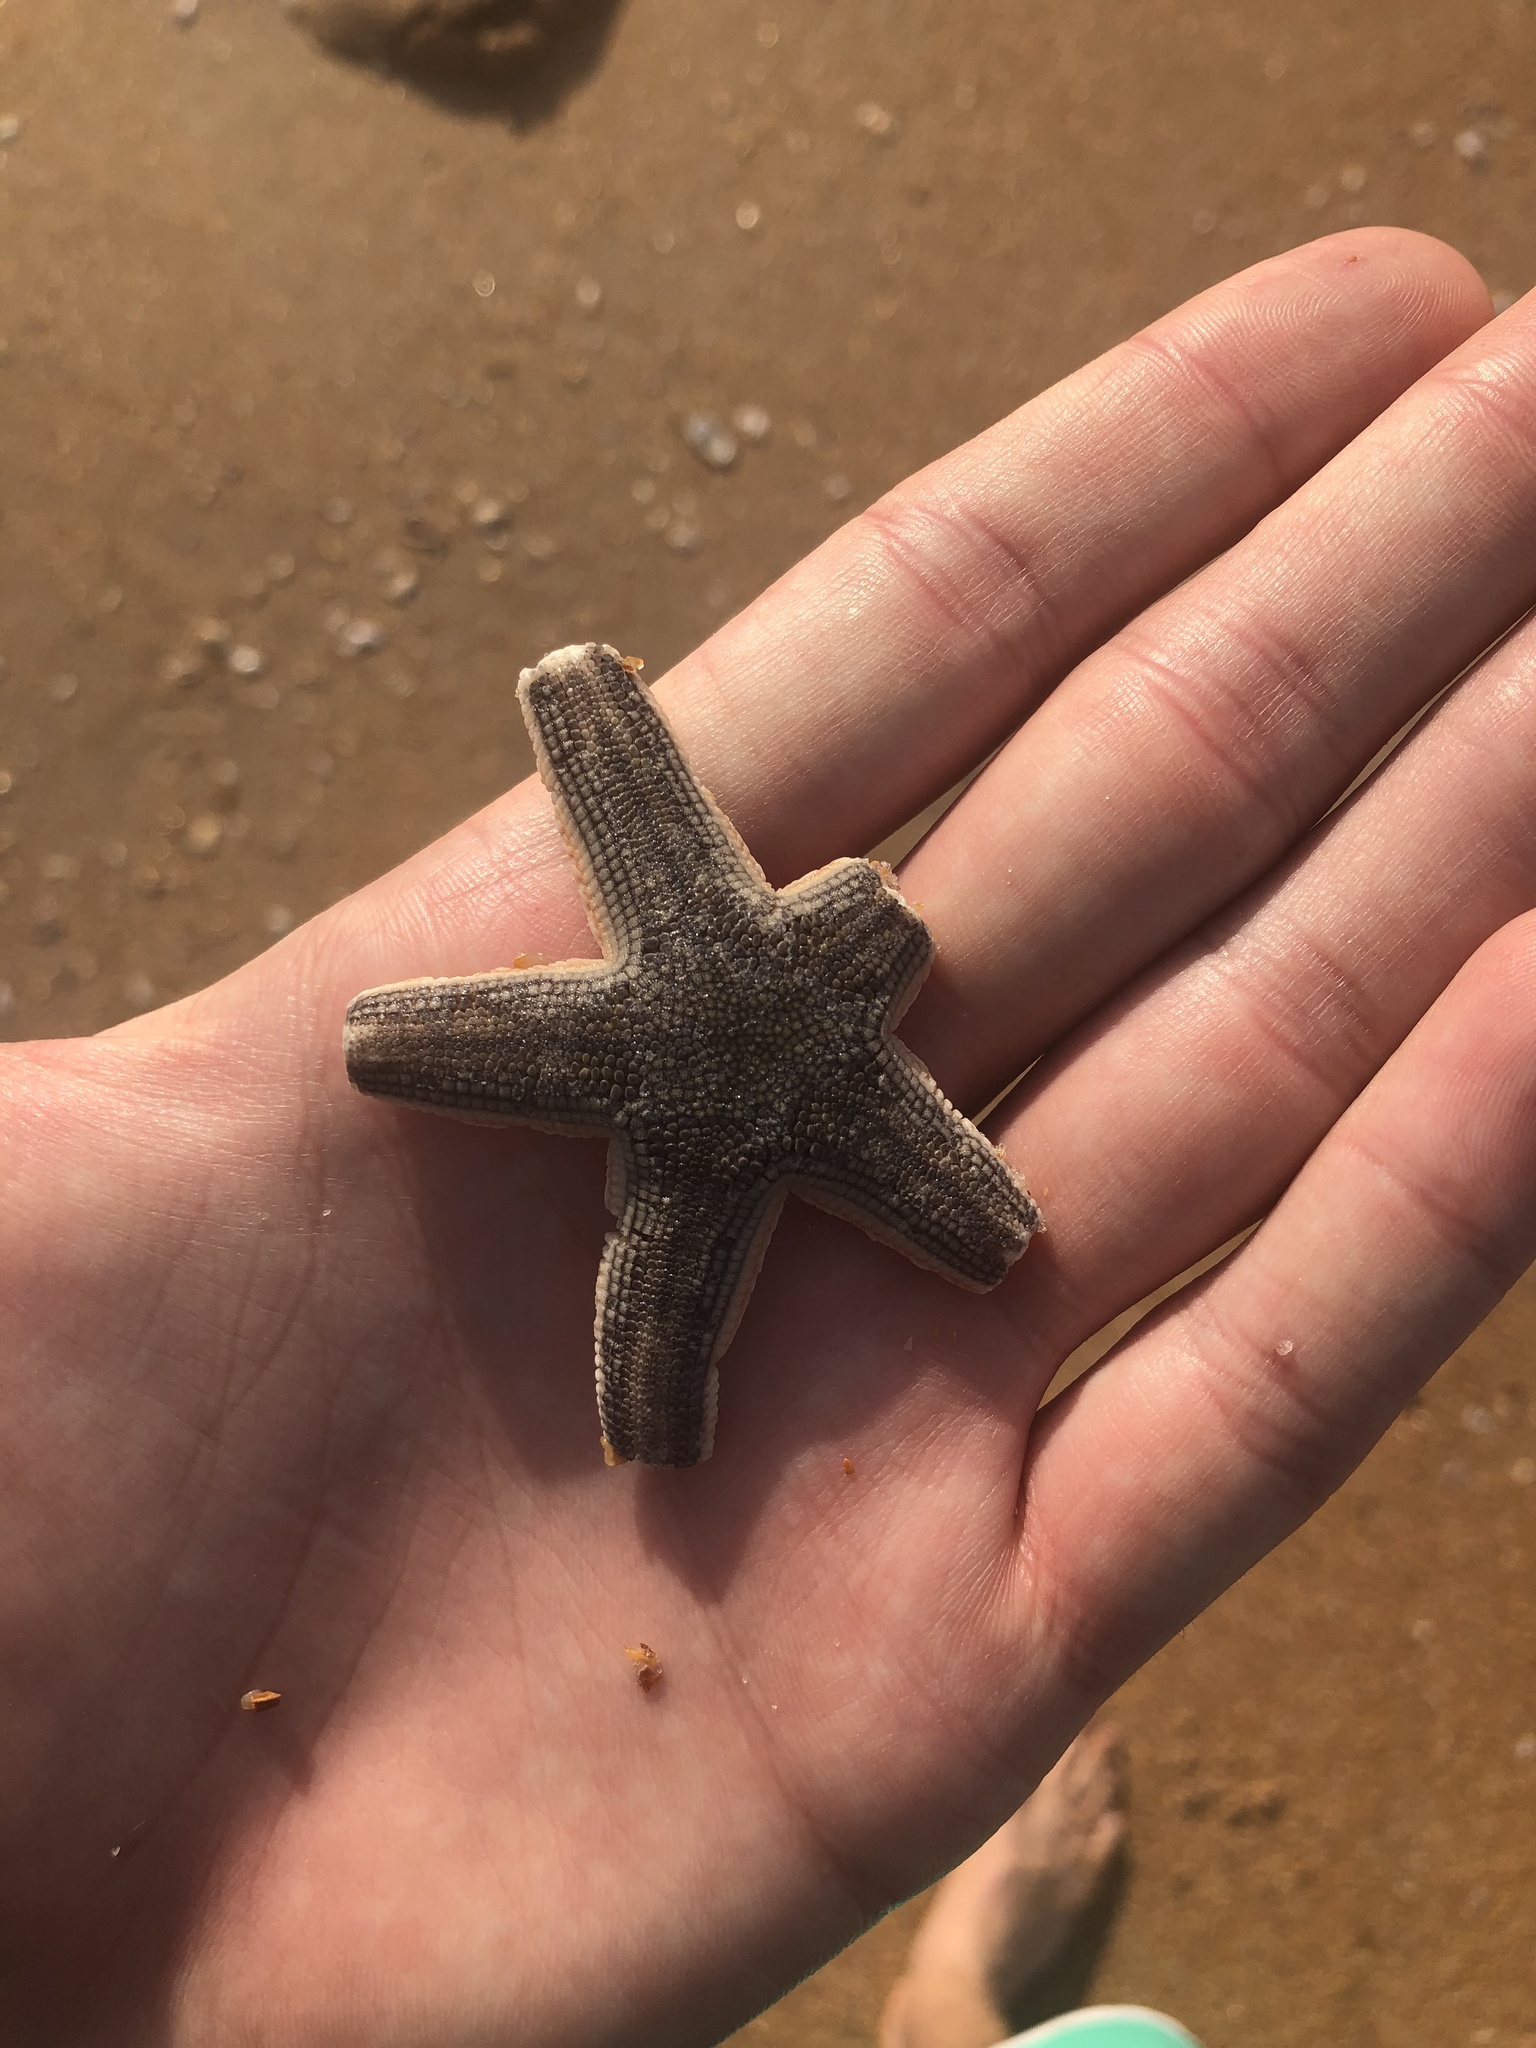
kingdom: Animalia
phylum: Echinodermata
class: Asteroidea
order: Paxillosida
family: Luidiidae
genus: Luidia
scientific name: Luidia clathrata
